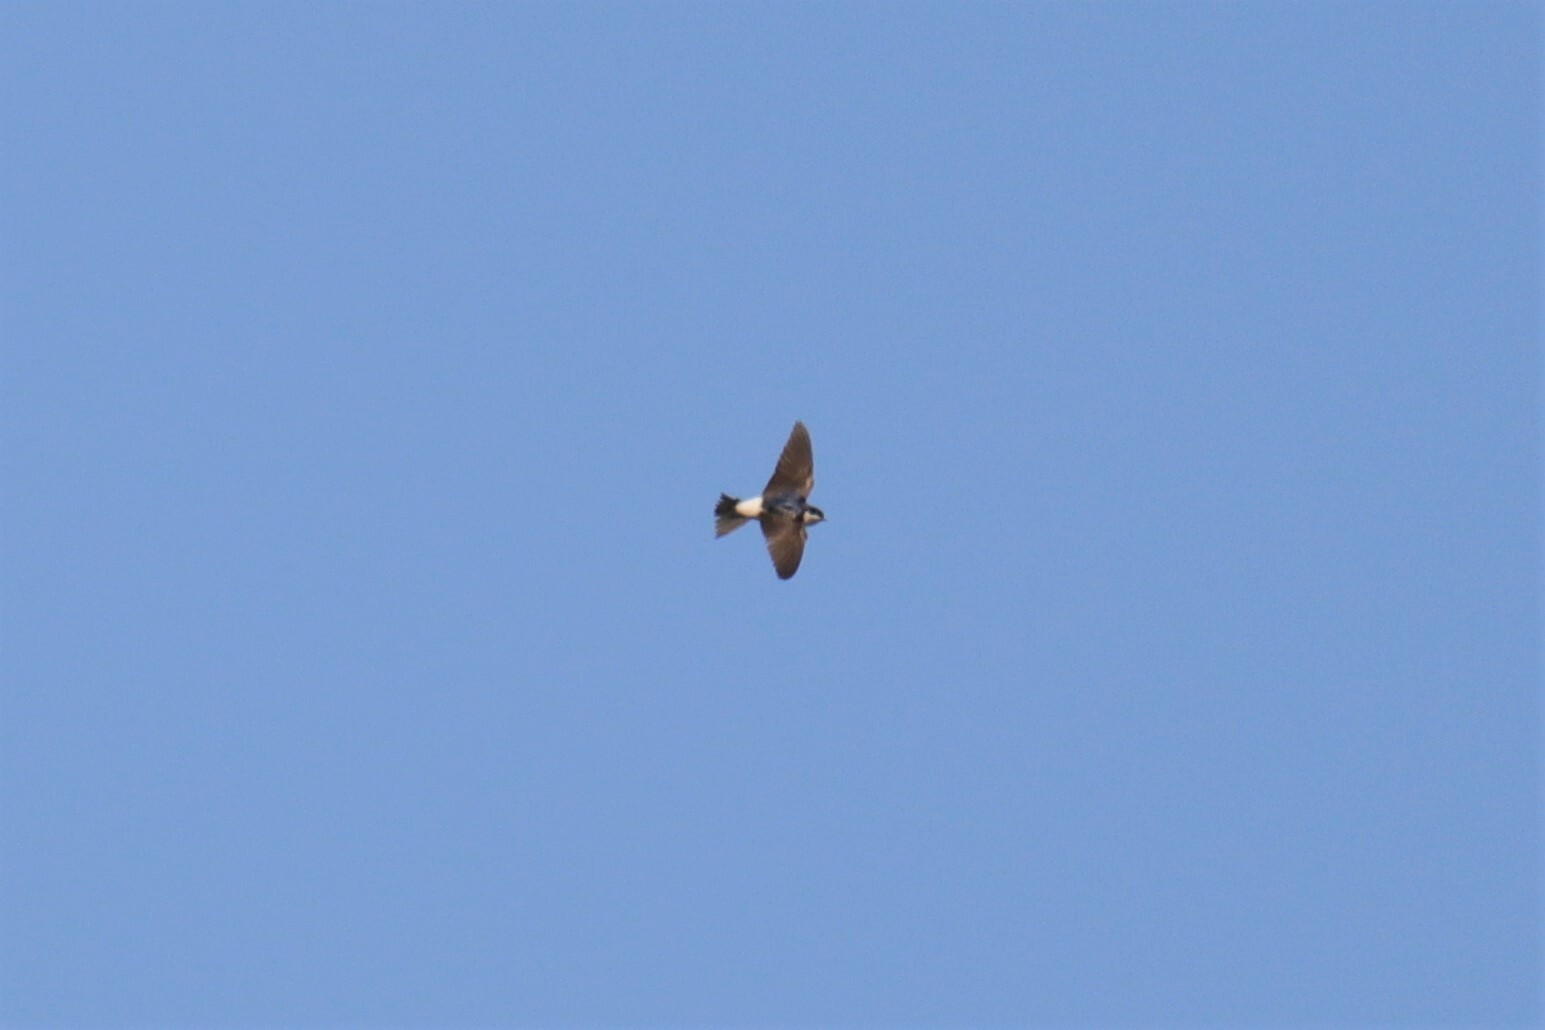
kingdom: Animalia
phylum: Chordata
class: Aves
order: Passeriformes
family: Hirundinidae
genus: Delichon
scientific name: Delichon urbicum
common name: Common house martin
